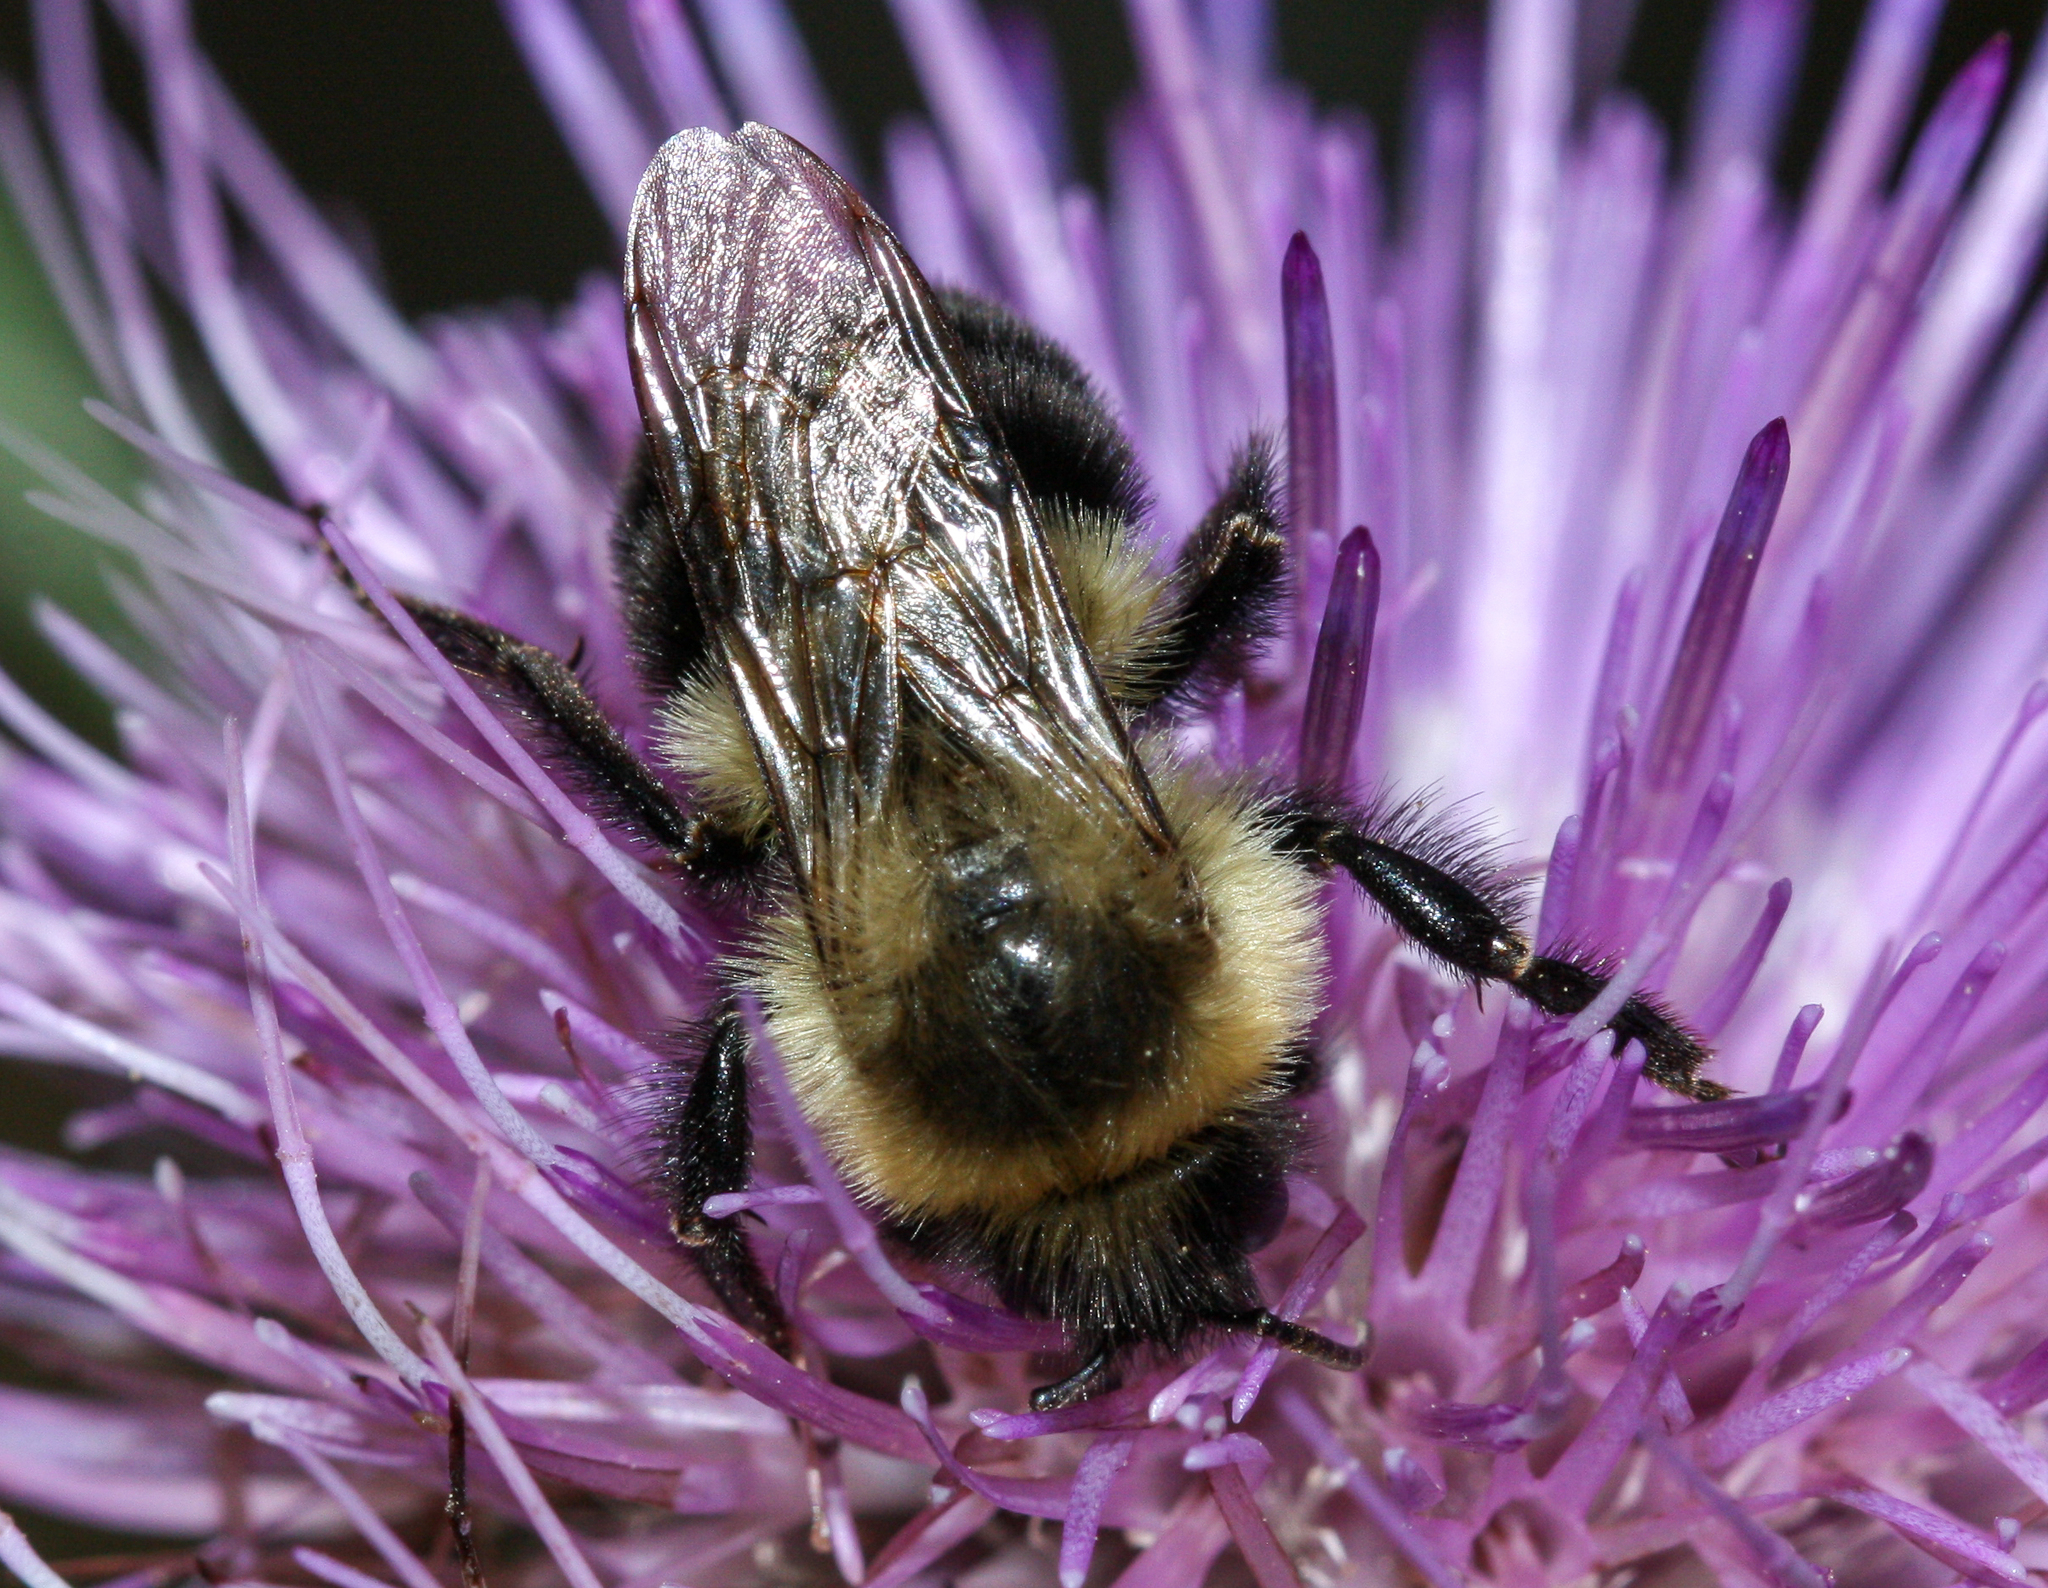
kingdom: Animalia
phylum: Arthropoda
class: Insecta
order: Hymenoptera
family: Apidae
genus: Bombus
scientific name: Bombus impatiens
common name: Common eastern bumble bee
